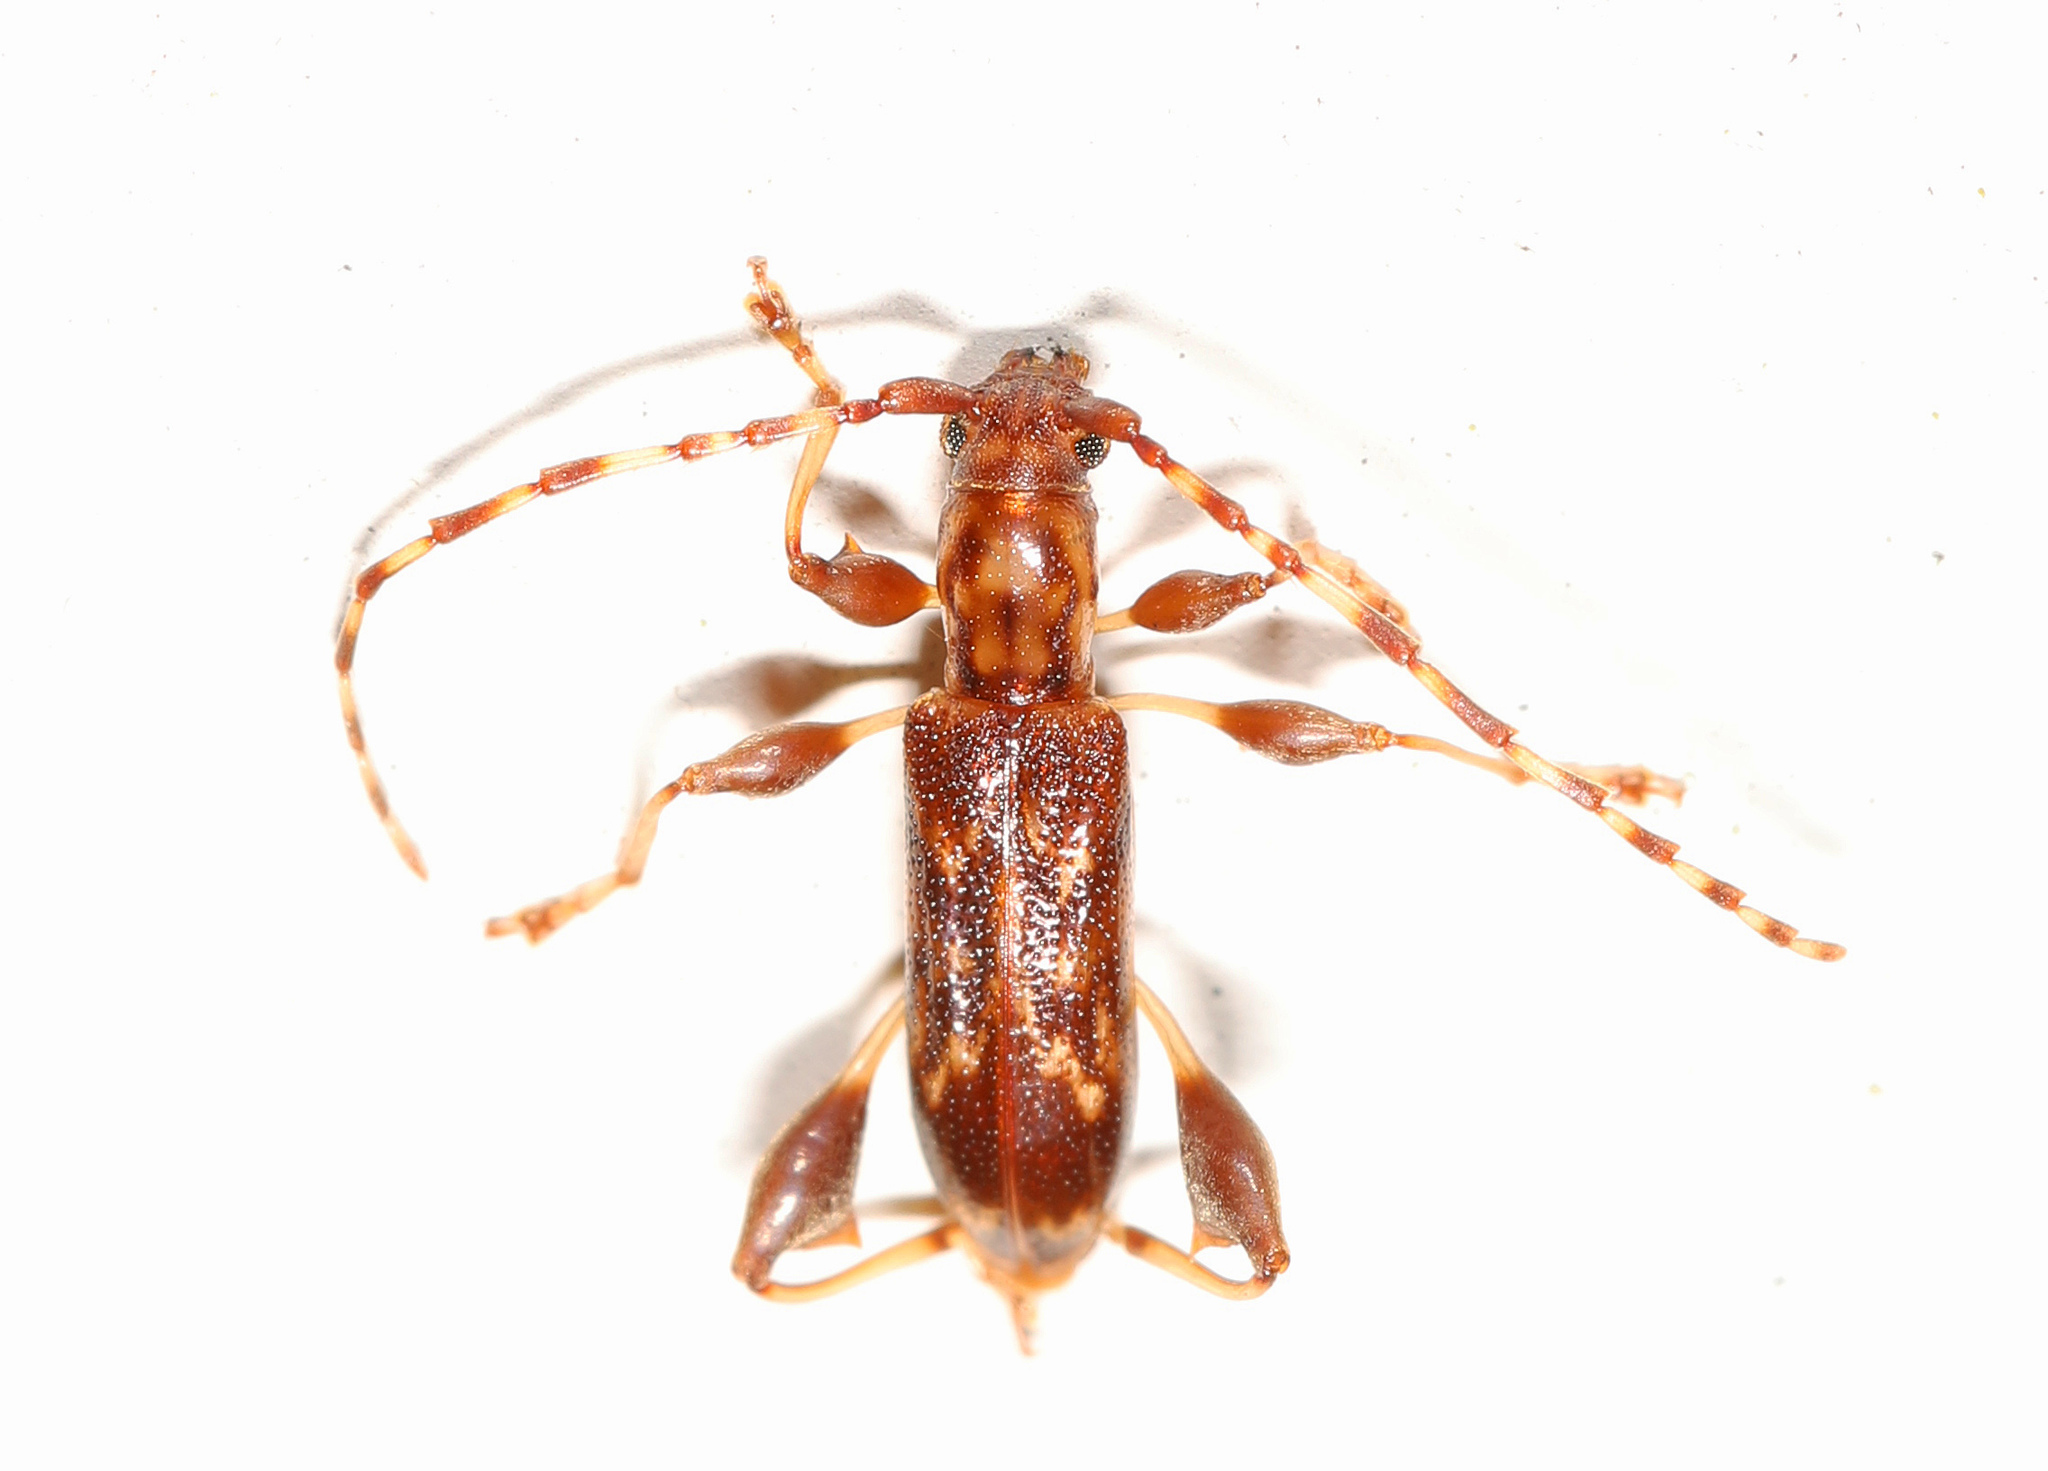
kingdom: Animalia
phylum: Arthropoda
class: Insecta
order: Coleoptera
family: Cerambycidae
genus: Plectromerus
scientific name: Plectromerus dentipes
